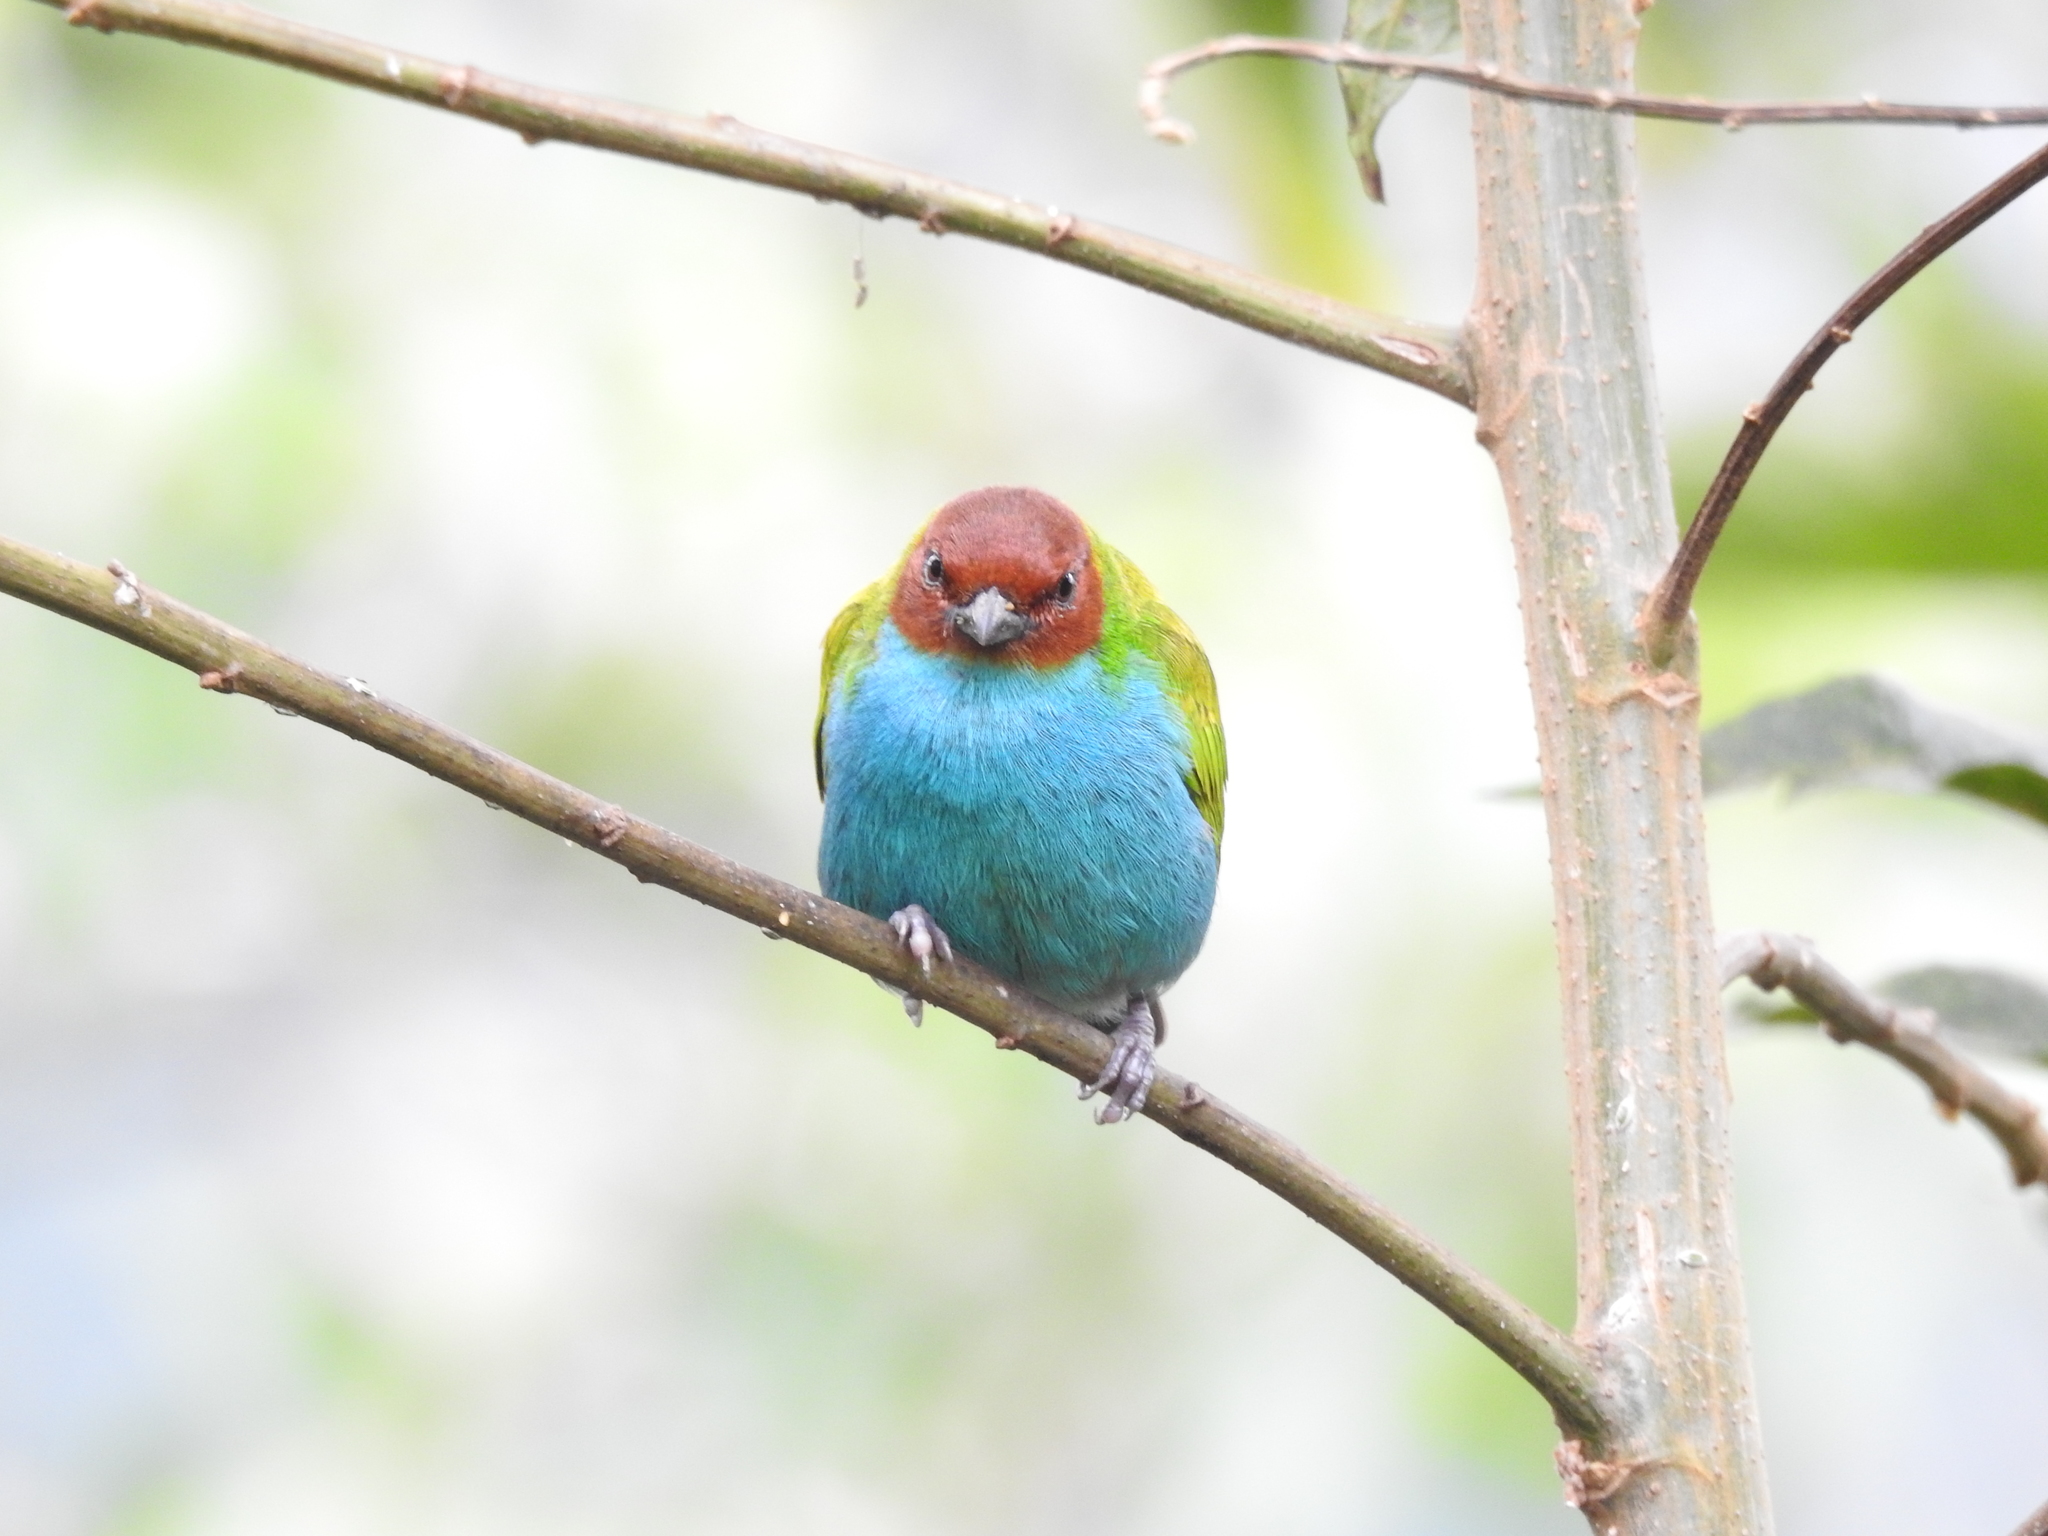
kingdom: Animalia
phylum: Chordata
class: Aves
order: Passeriformes
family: Thraupidae
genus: Tangara
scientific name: Tangara gyrola
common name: Bay-headed tanager
